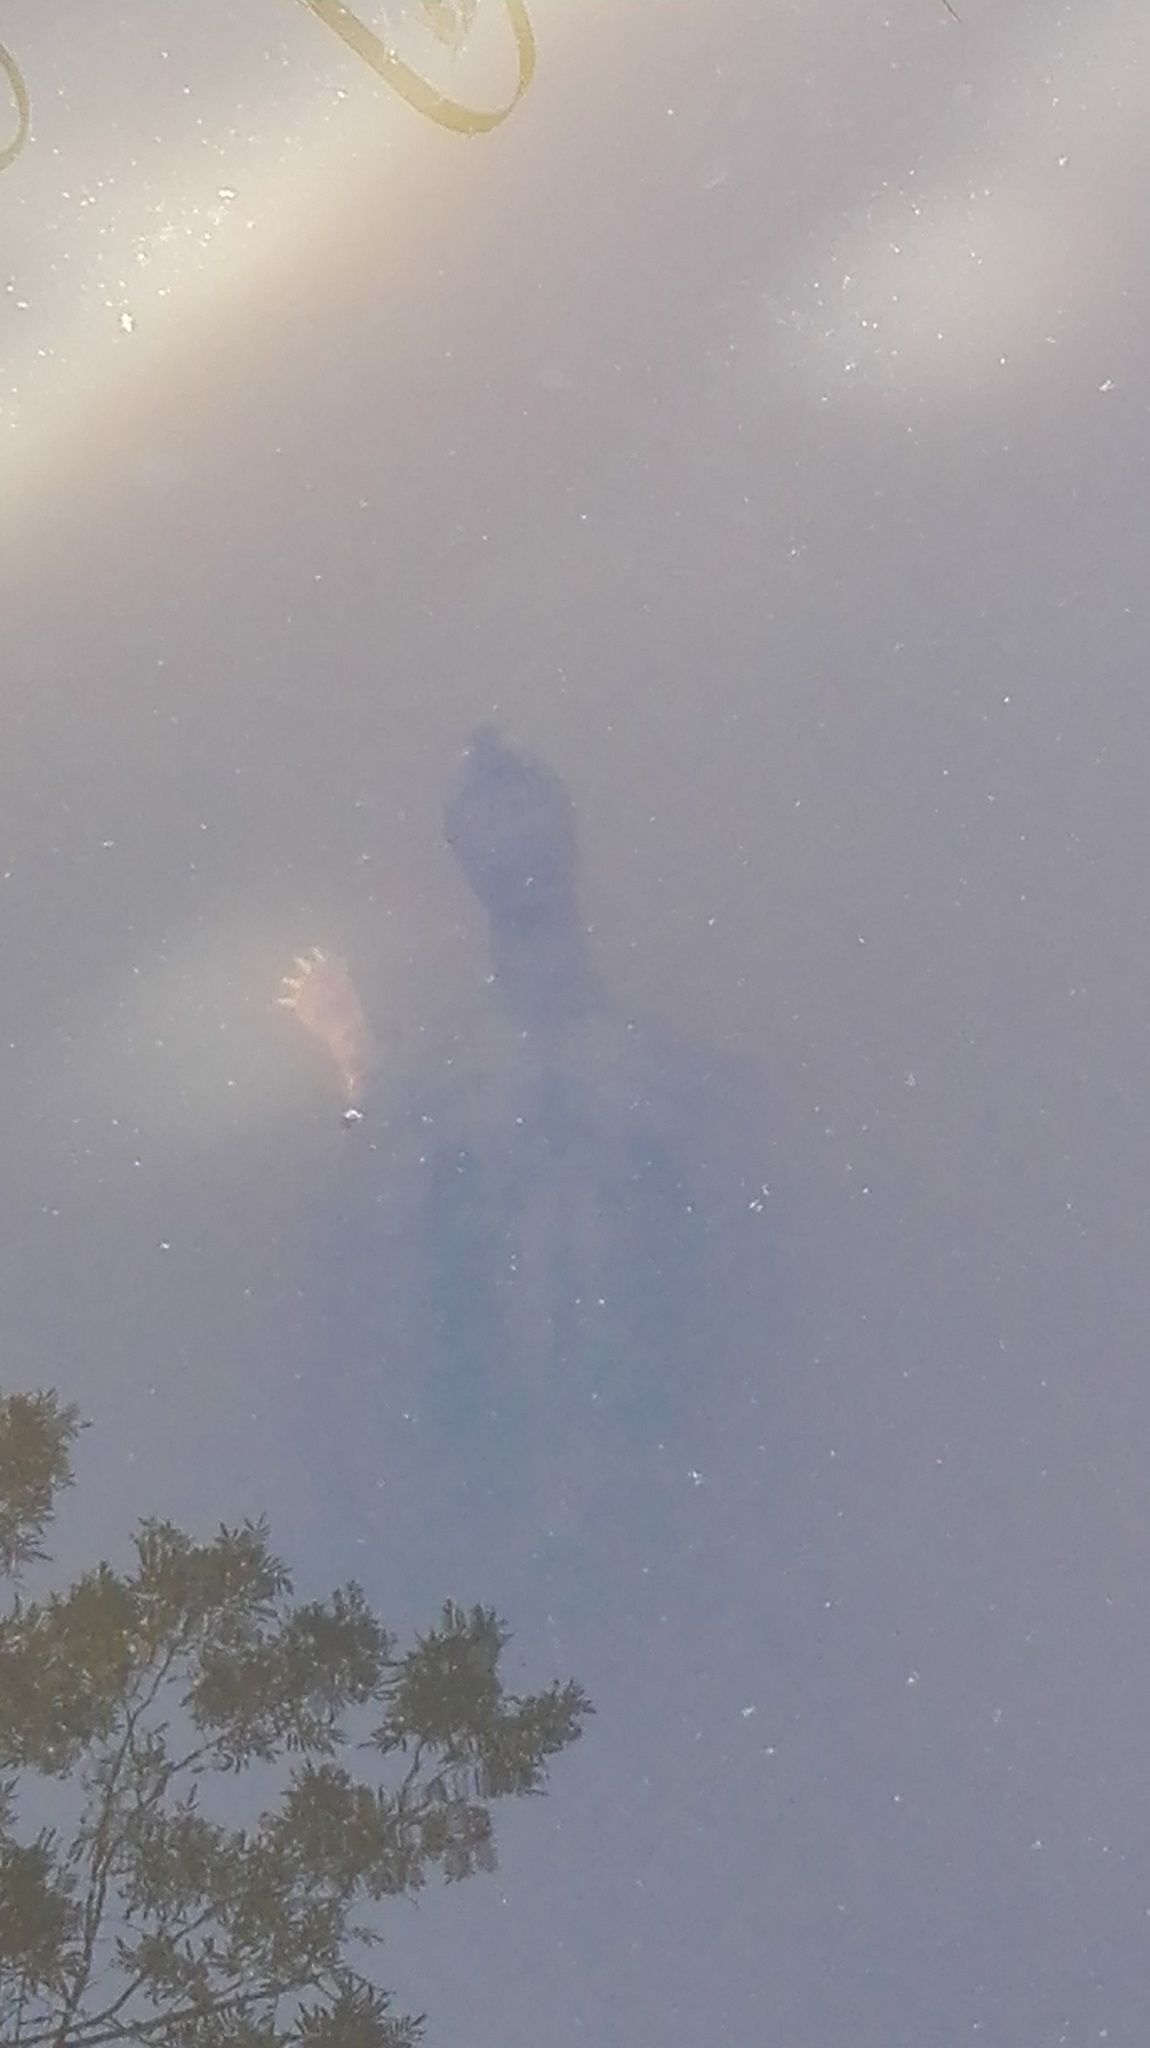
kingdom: Animalia
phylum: Chordata
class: Testudines
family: Pelomedusidae
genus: Pelomedusa
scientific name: Pelomedusa galeata
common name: South african helmeted terrapin
